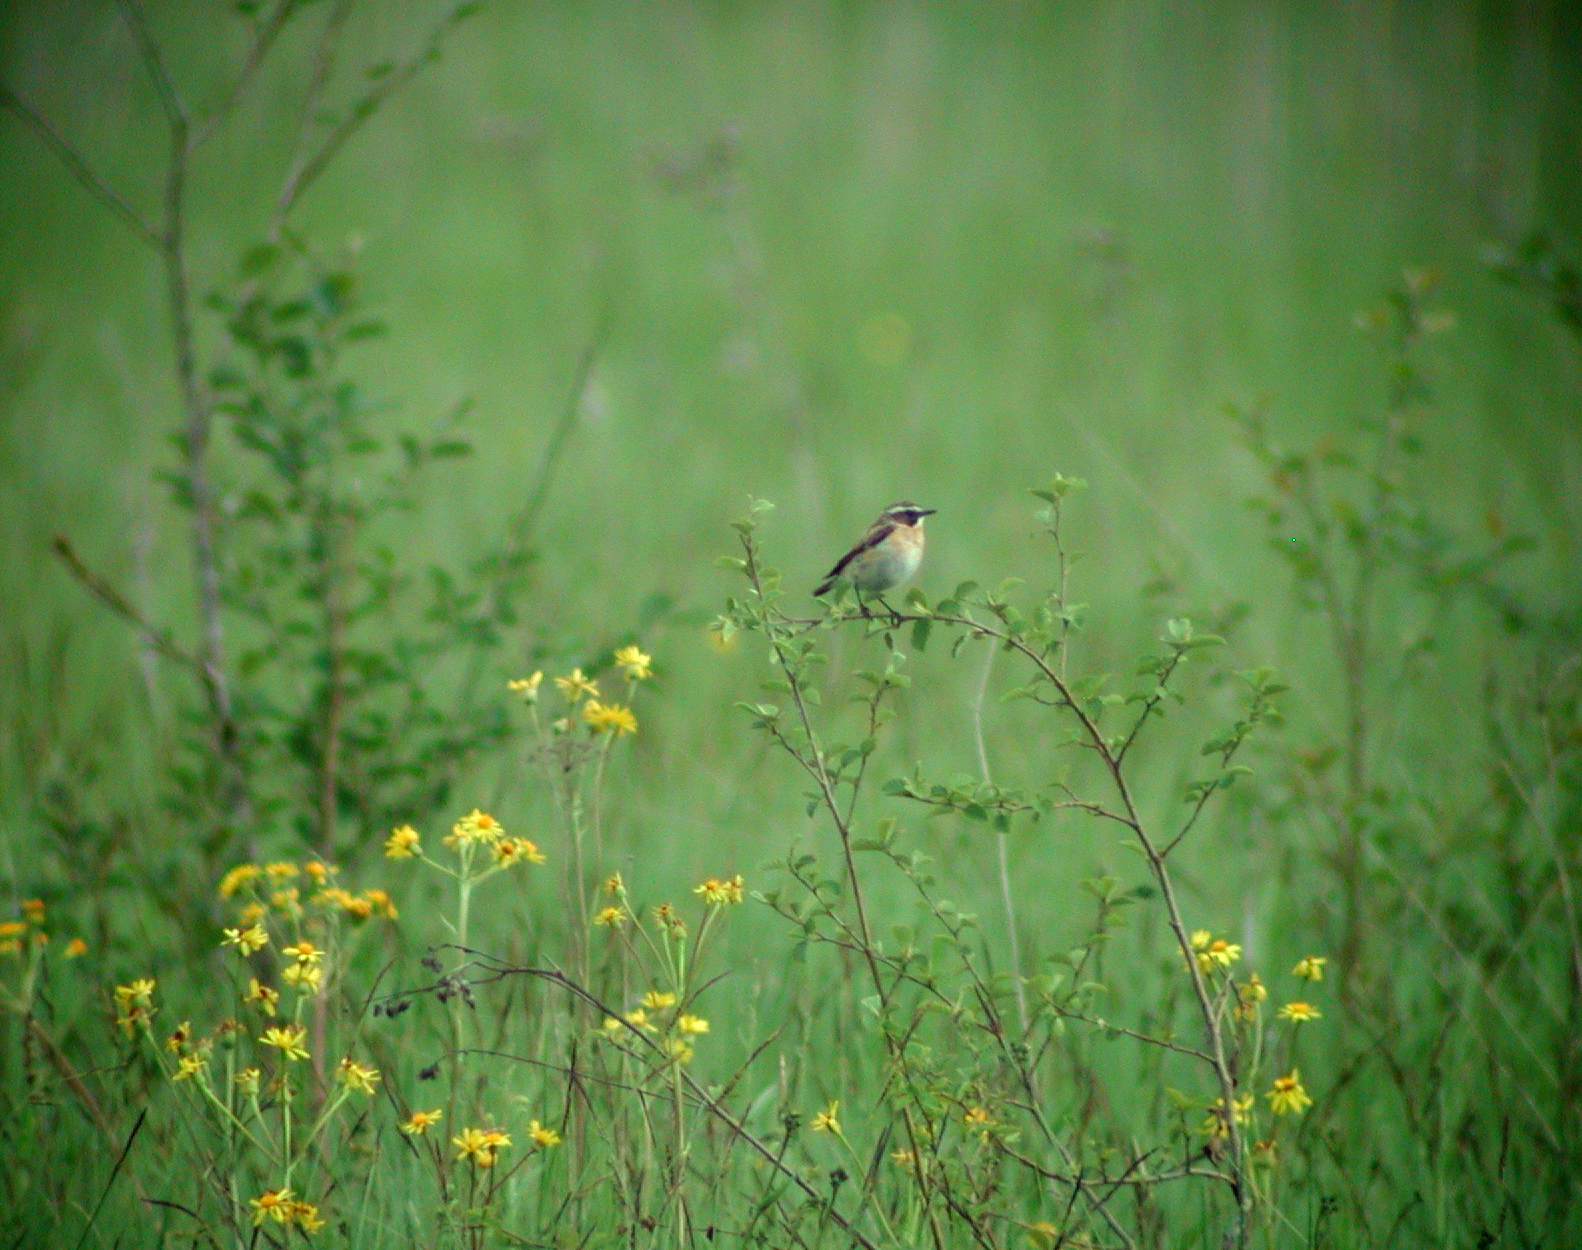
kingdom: Animalia
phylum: Chordata
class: Aves
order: Passeriformes
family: Muscicapidae
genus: Saxicola
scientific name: Saxicola rubetra
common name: Whinchat
